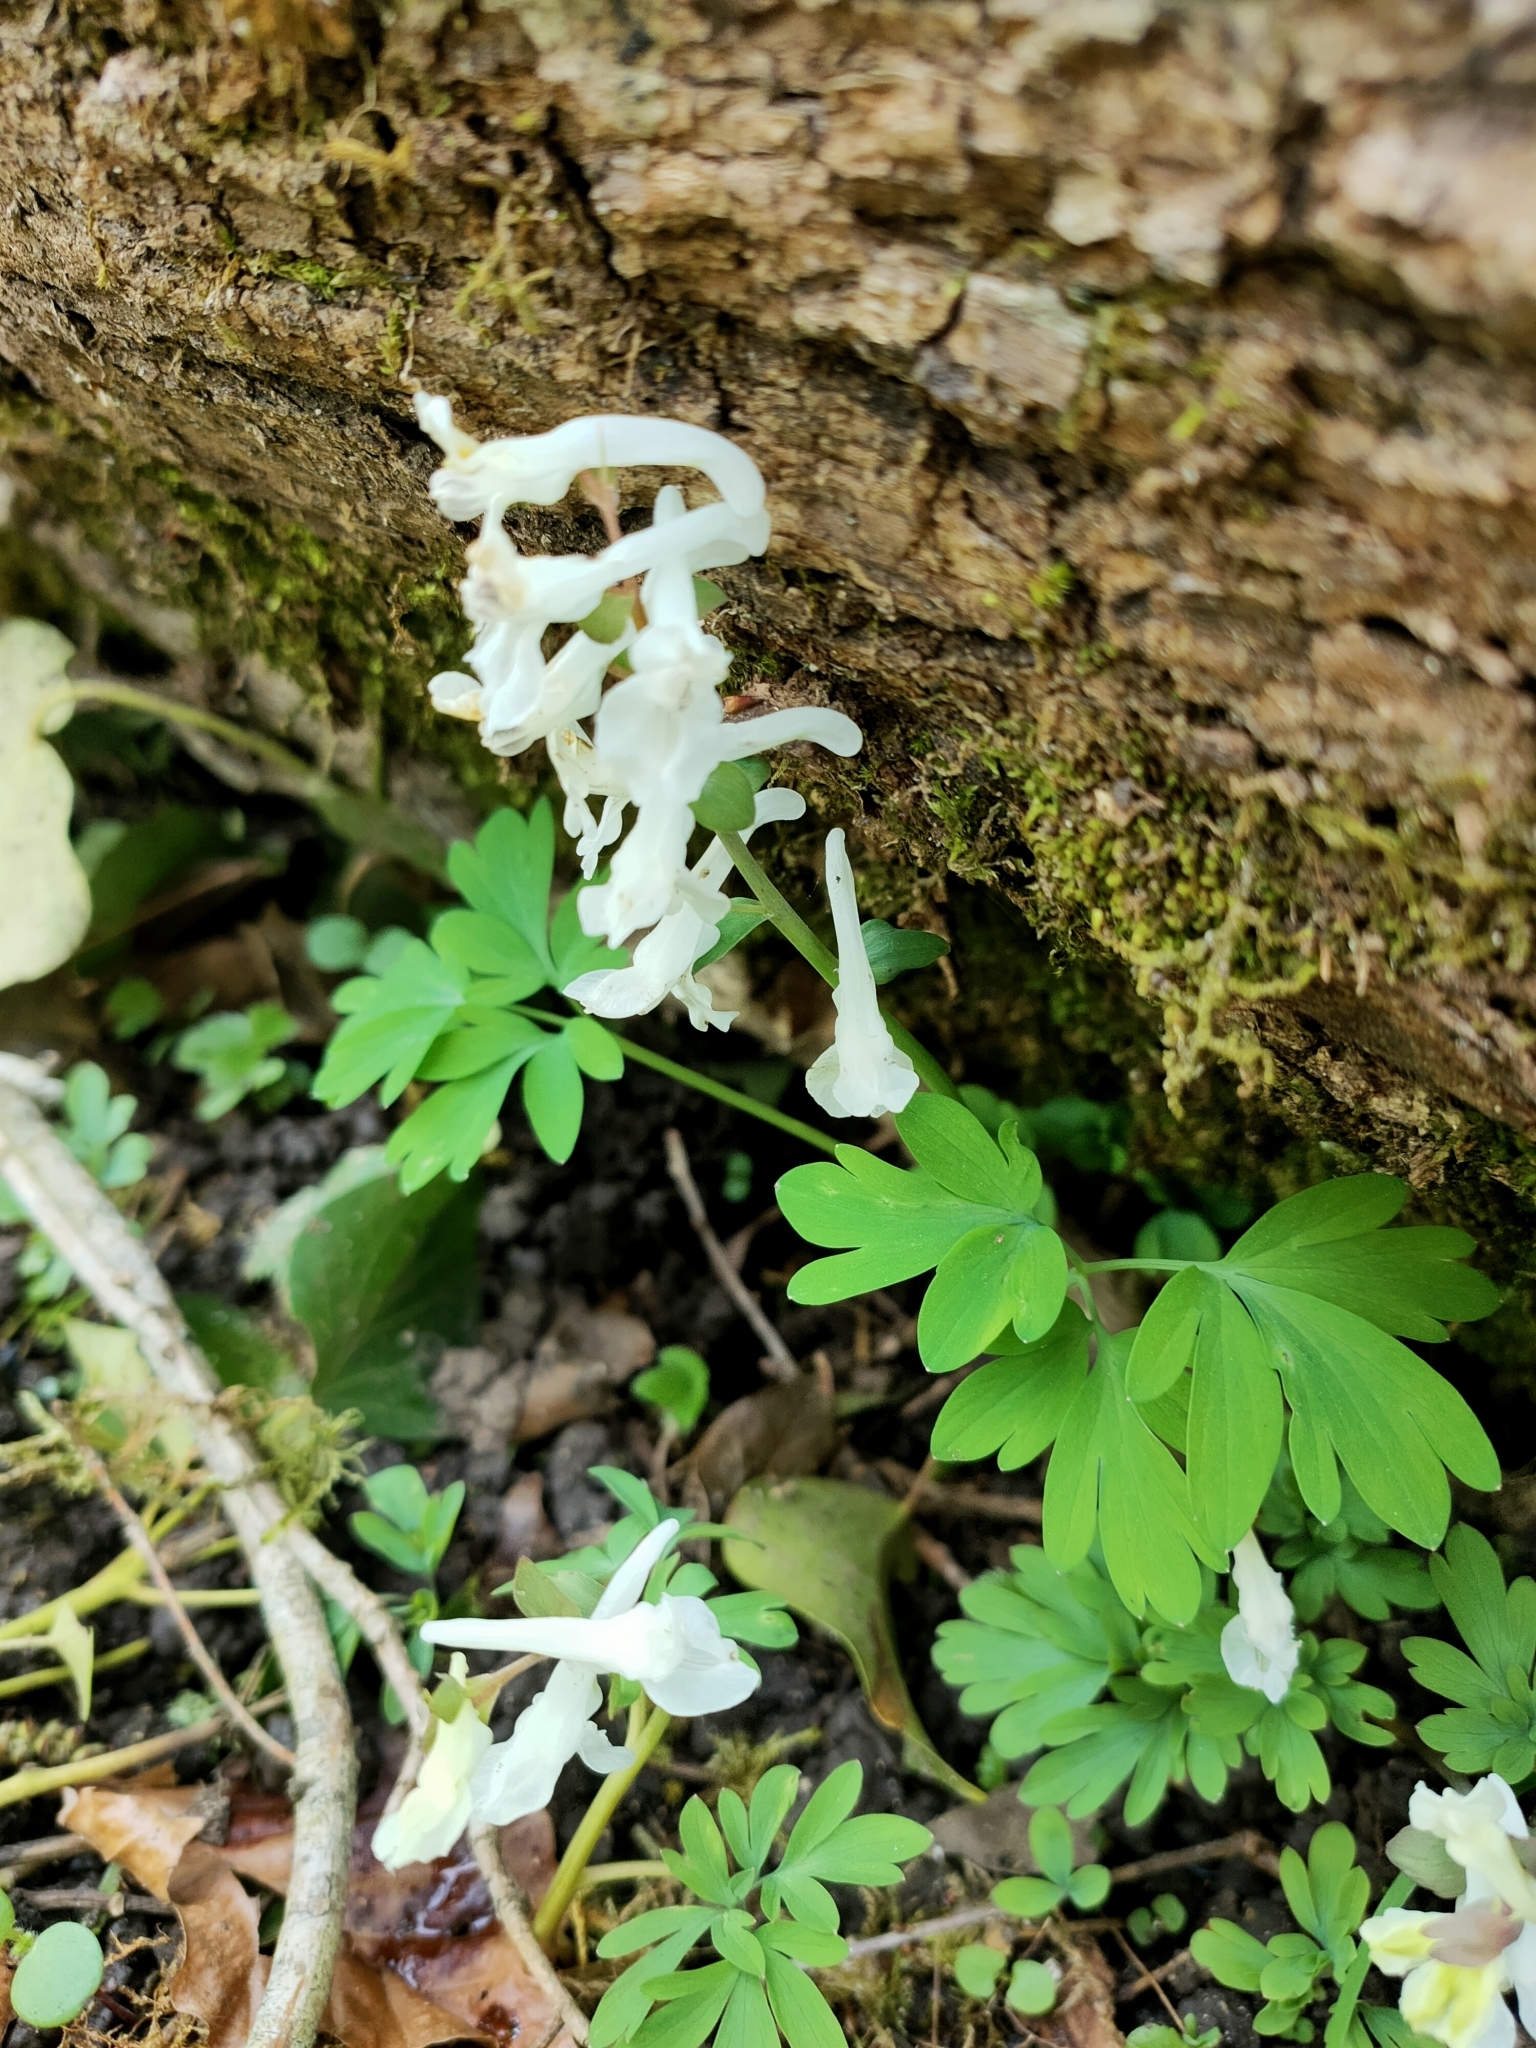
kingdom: Plantae
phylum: Tracheophyta
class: Magnoliopsida
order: Ranunculales
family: Papaveraceae
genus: Corydalis
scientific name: Corydalis cava
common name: Hollowroot
